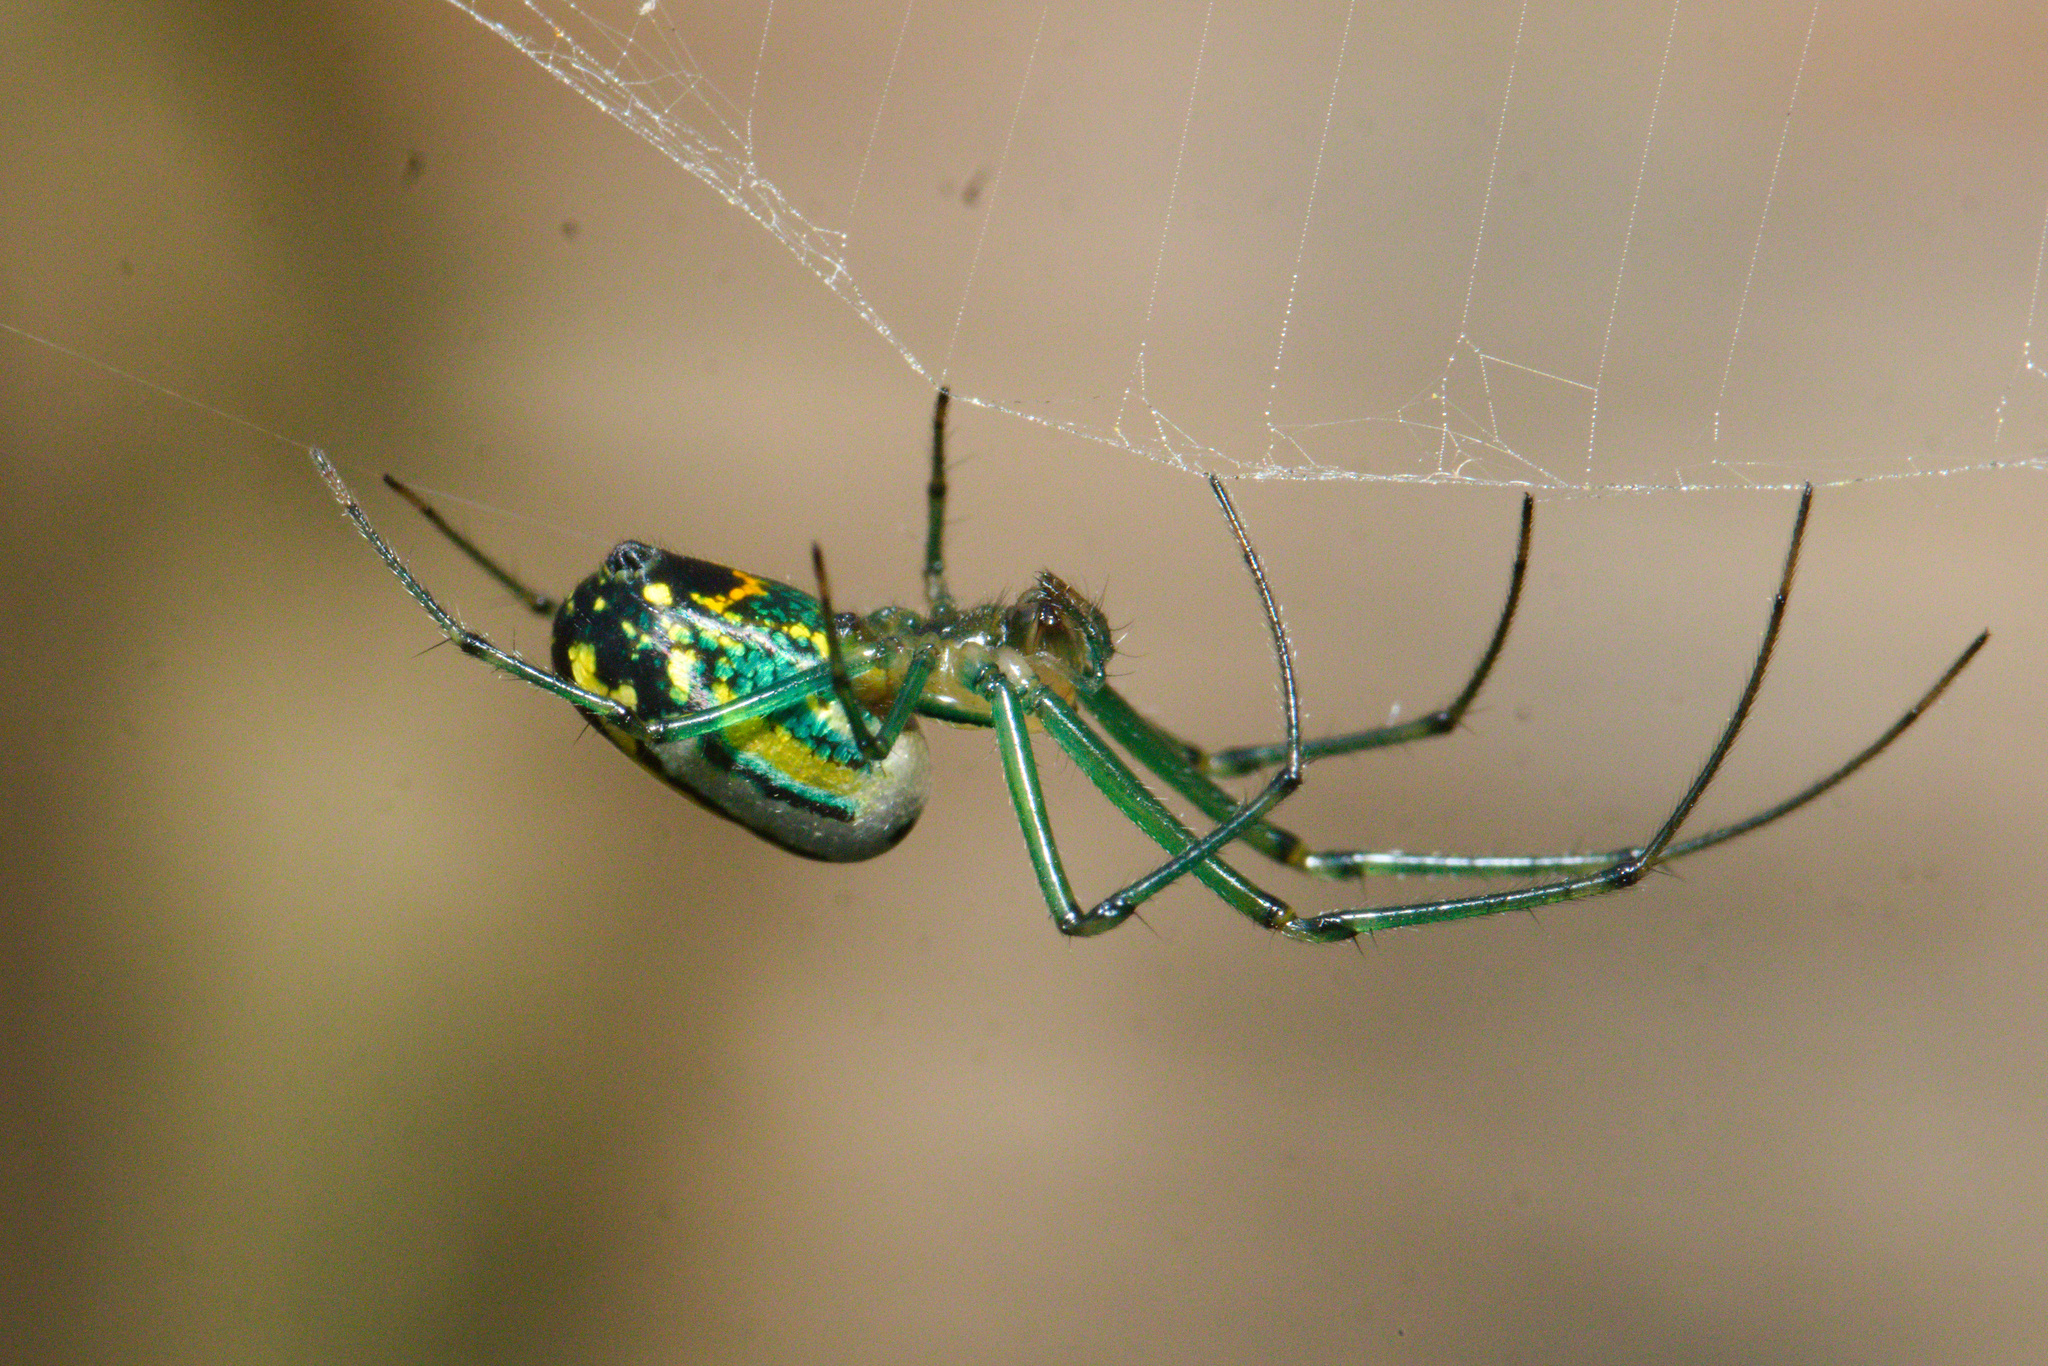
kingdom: Animalia
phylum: Arthropoda
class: Arachnida
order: Araneae
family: Tetragnathidae
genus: Leucauge
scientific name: Leucauge venusta
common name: Longjawed orb weavers
